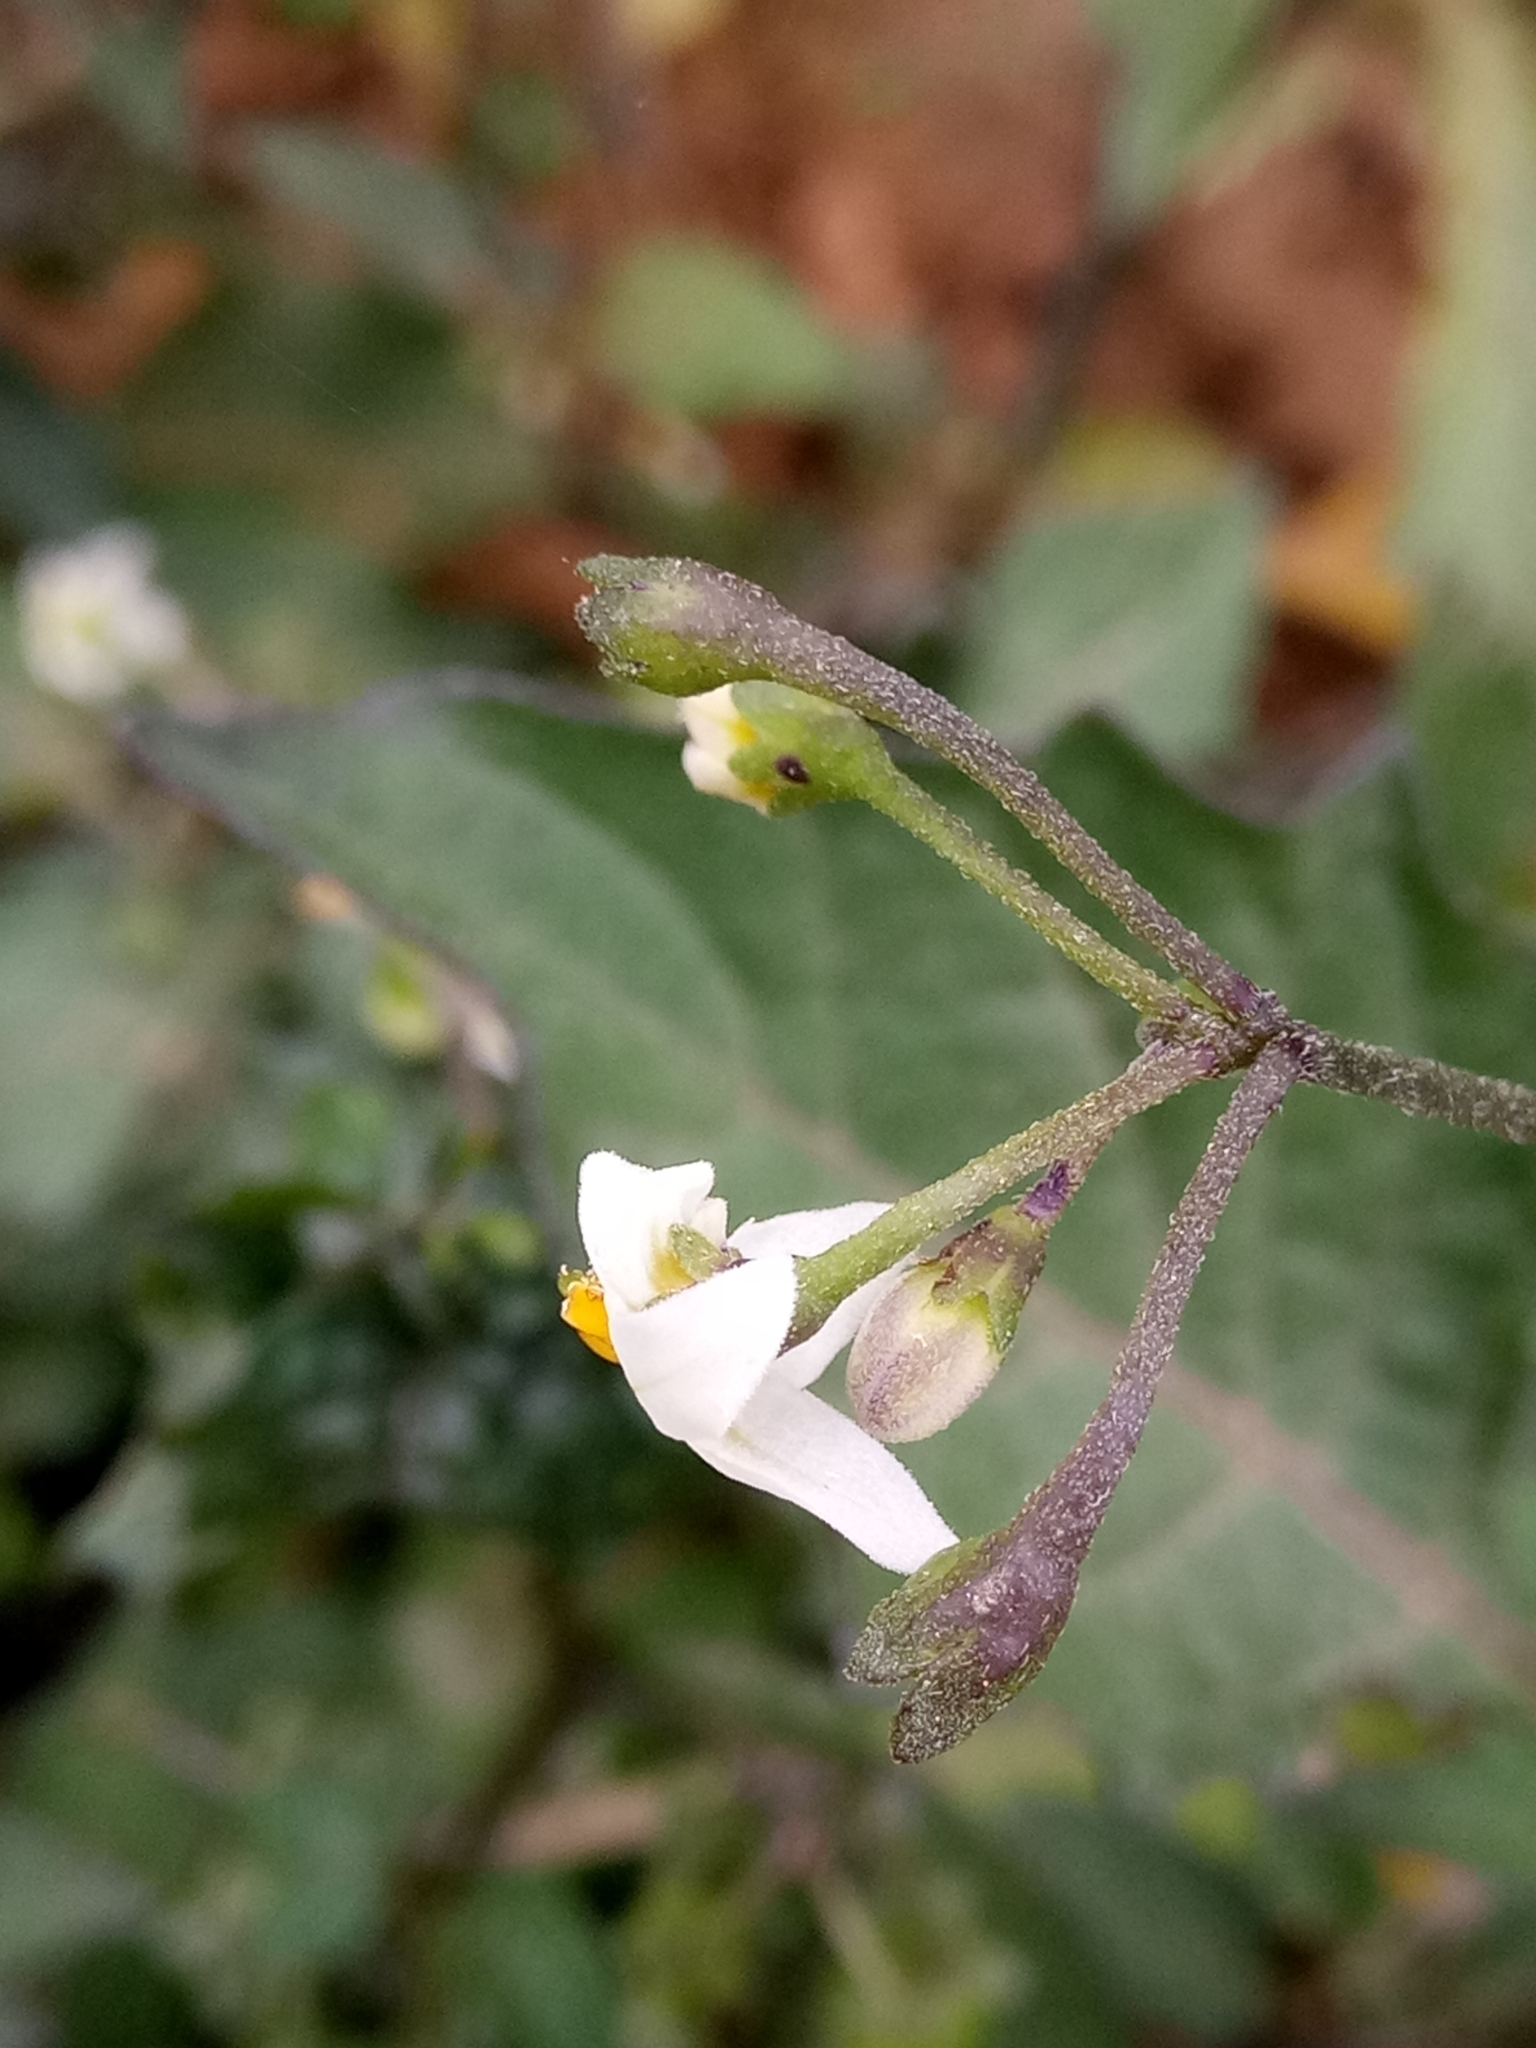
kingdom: Plantae
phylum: Tracheophyta
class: Magnoliopsida
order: Solanales
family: Solanaceae
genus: Solanum
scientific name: Solanum nigrum
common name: Black nightshade
